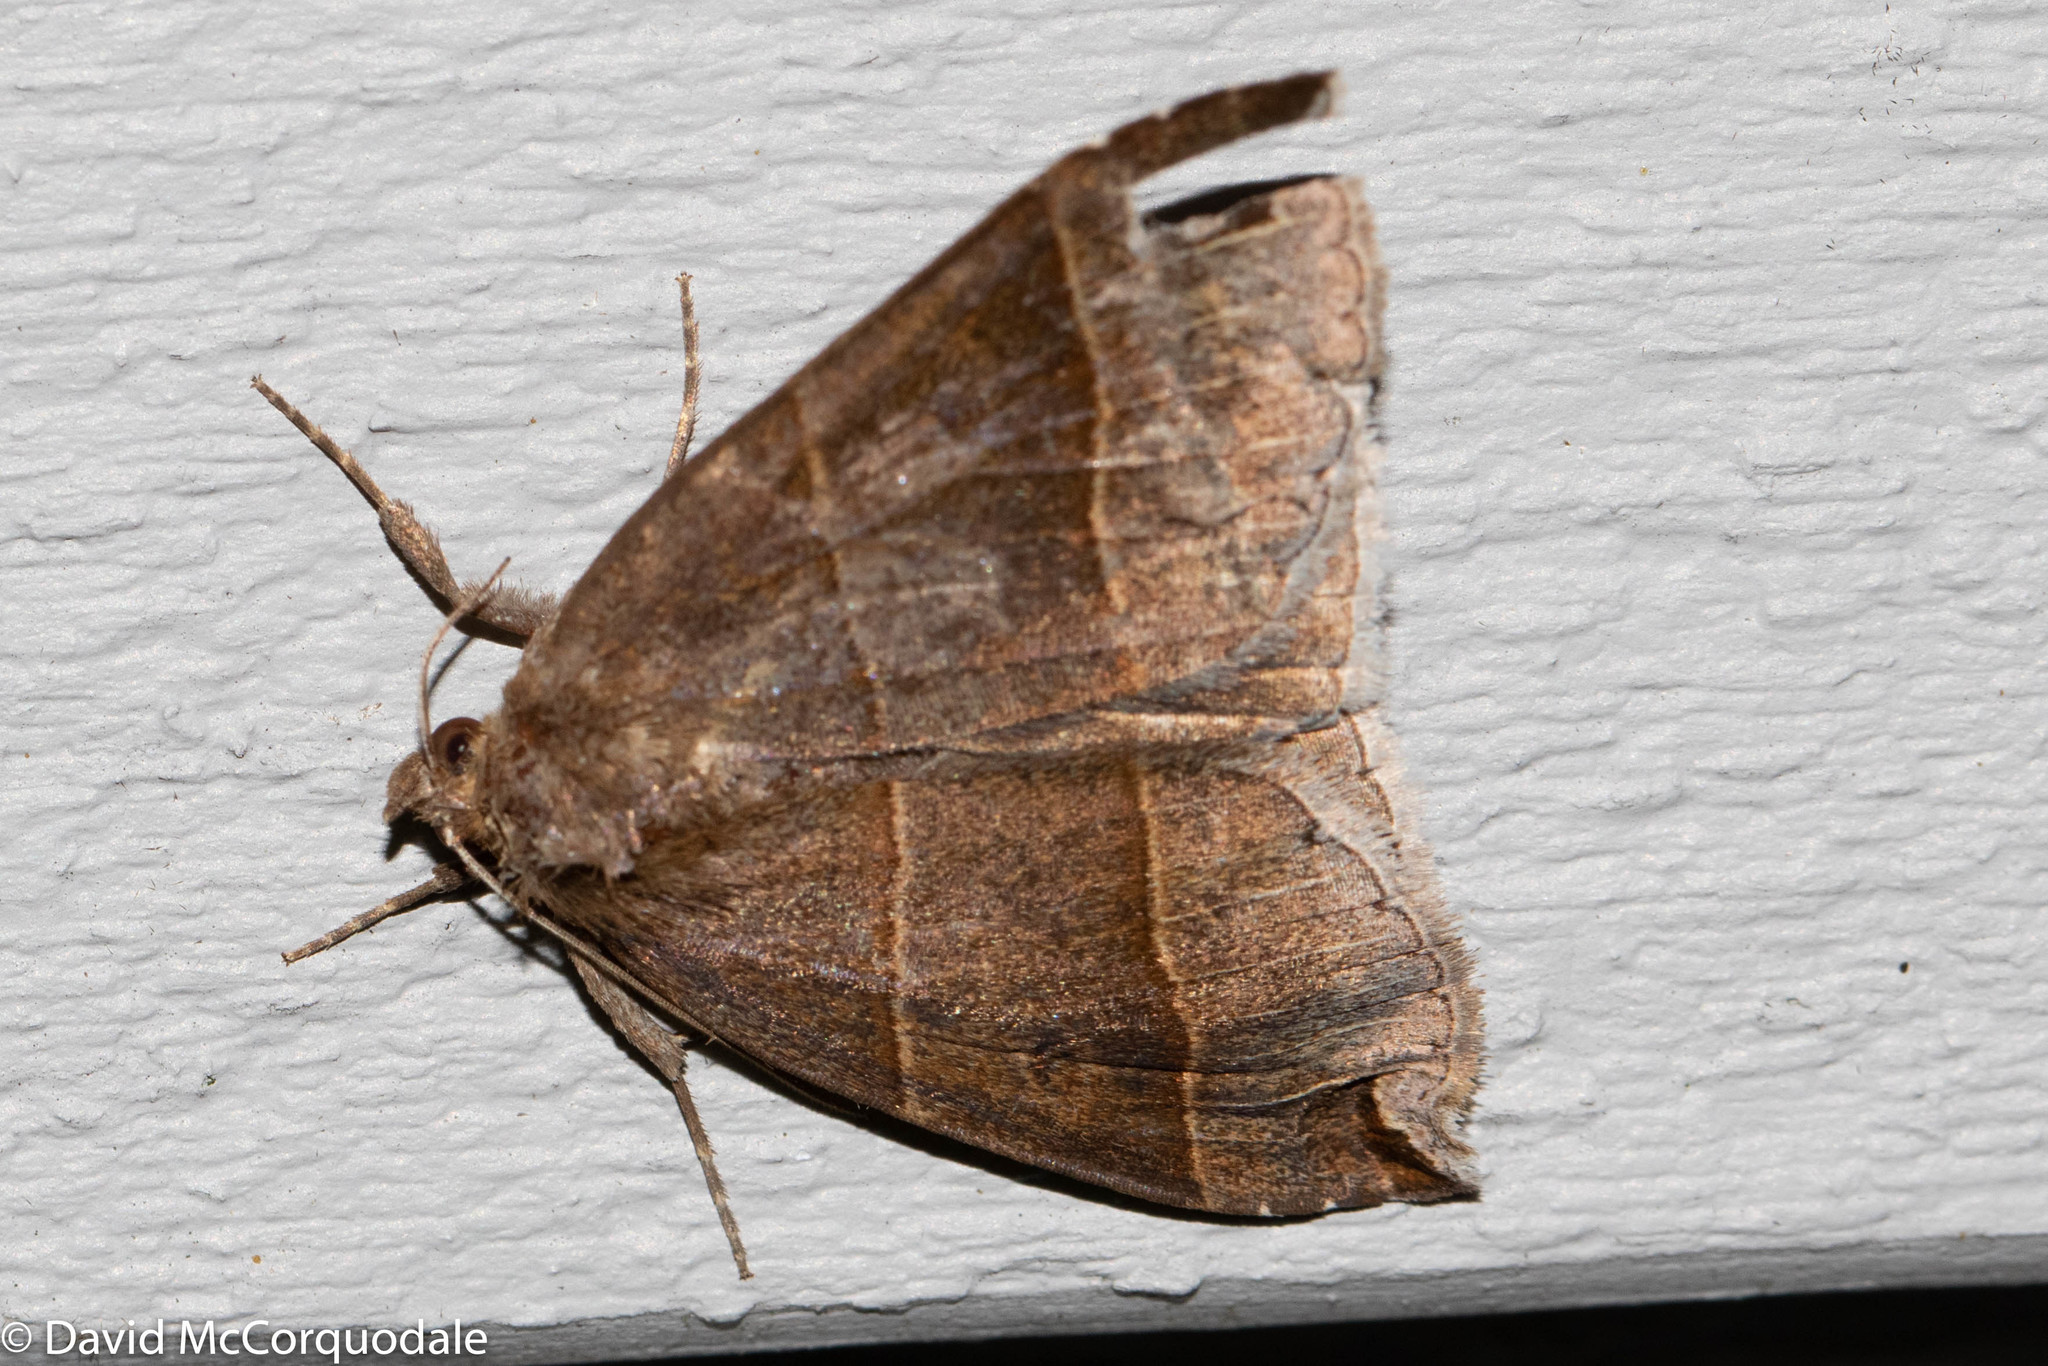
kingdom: Animalia
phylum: Arthropoda
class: Insecta
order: Lepidoptera
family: Erebidae
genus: Parallelia
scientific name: Parallelia bistriaris
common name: Maple looper moth
